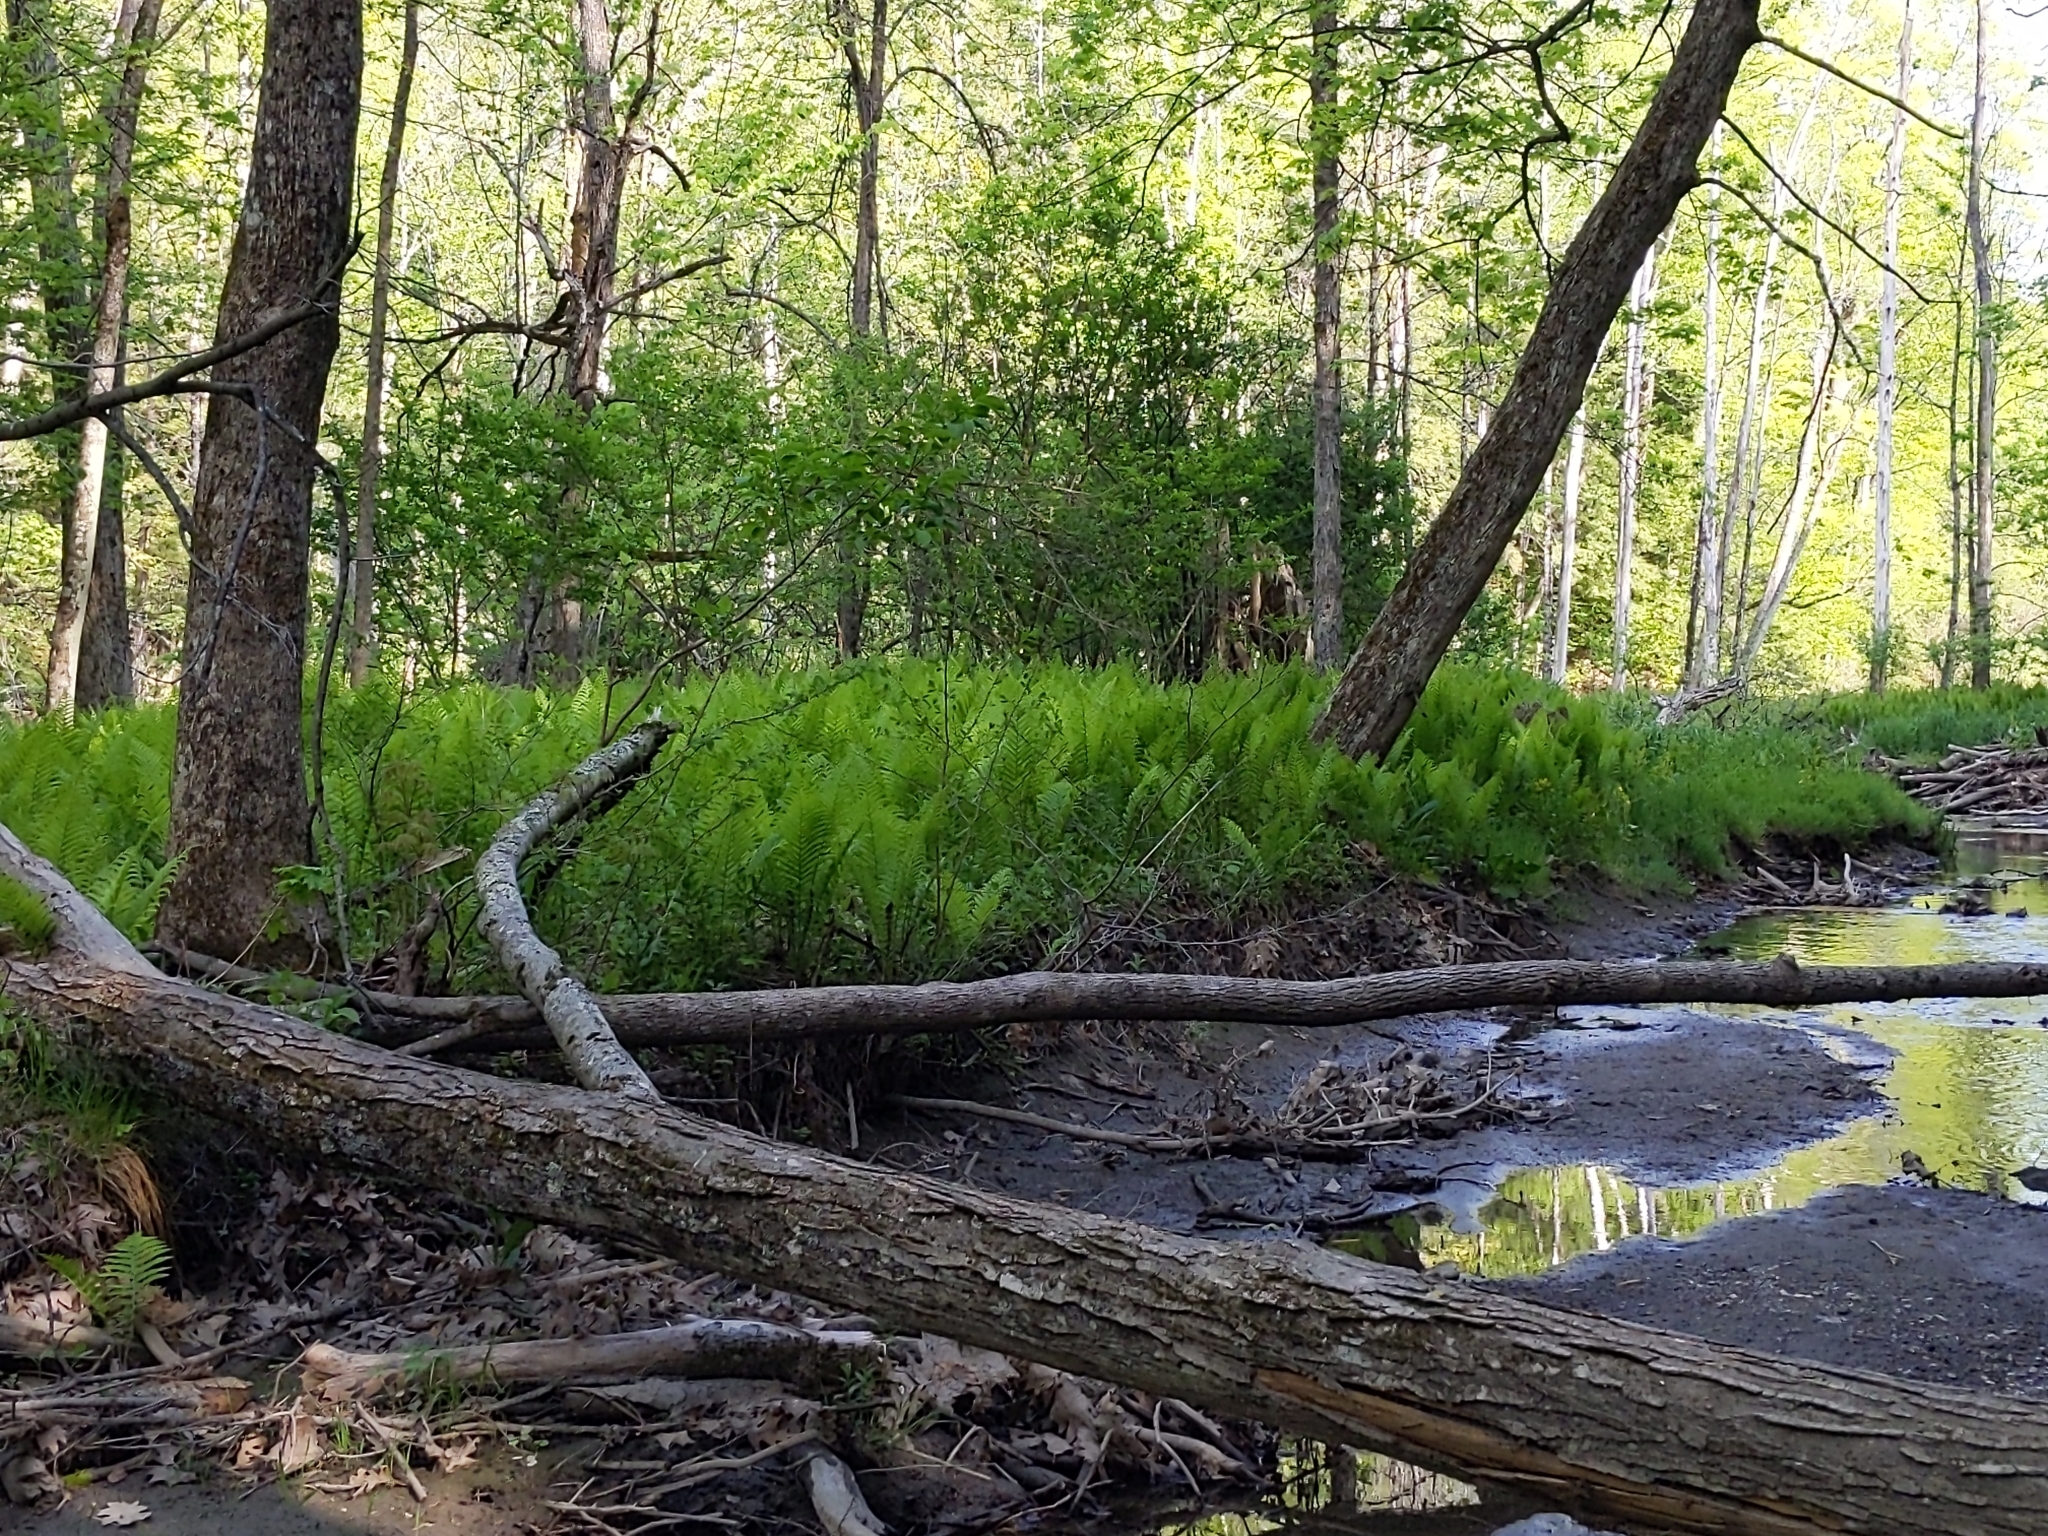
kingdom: Plantae
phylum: Tracheophyta
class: Polypodiopsida
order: Polypodiales
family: Onocleaceae
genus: Matteuccia
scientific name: Matteuccia struthiopteris
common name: Ostrich fern
